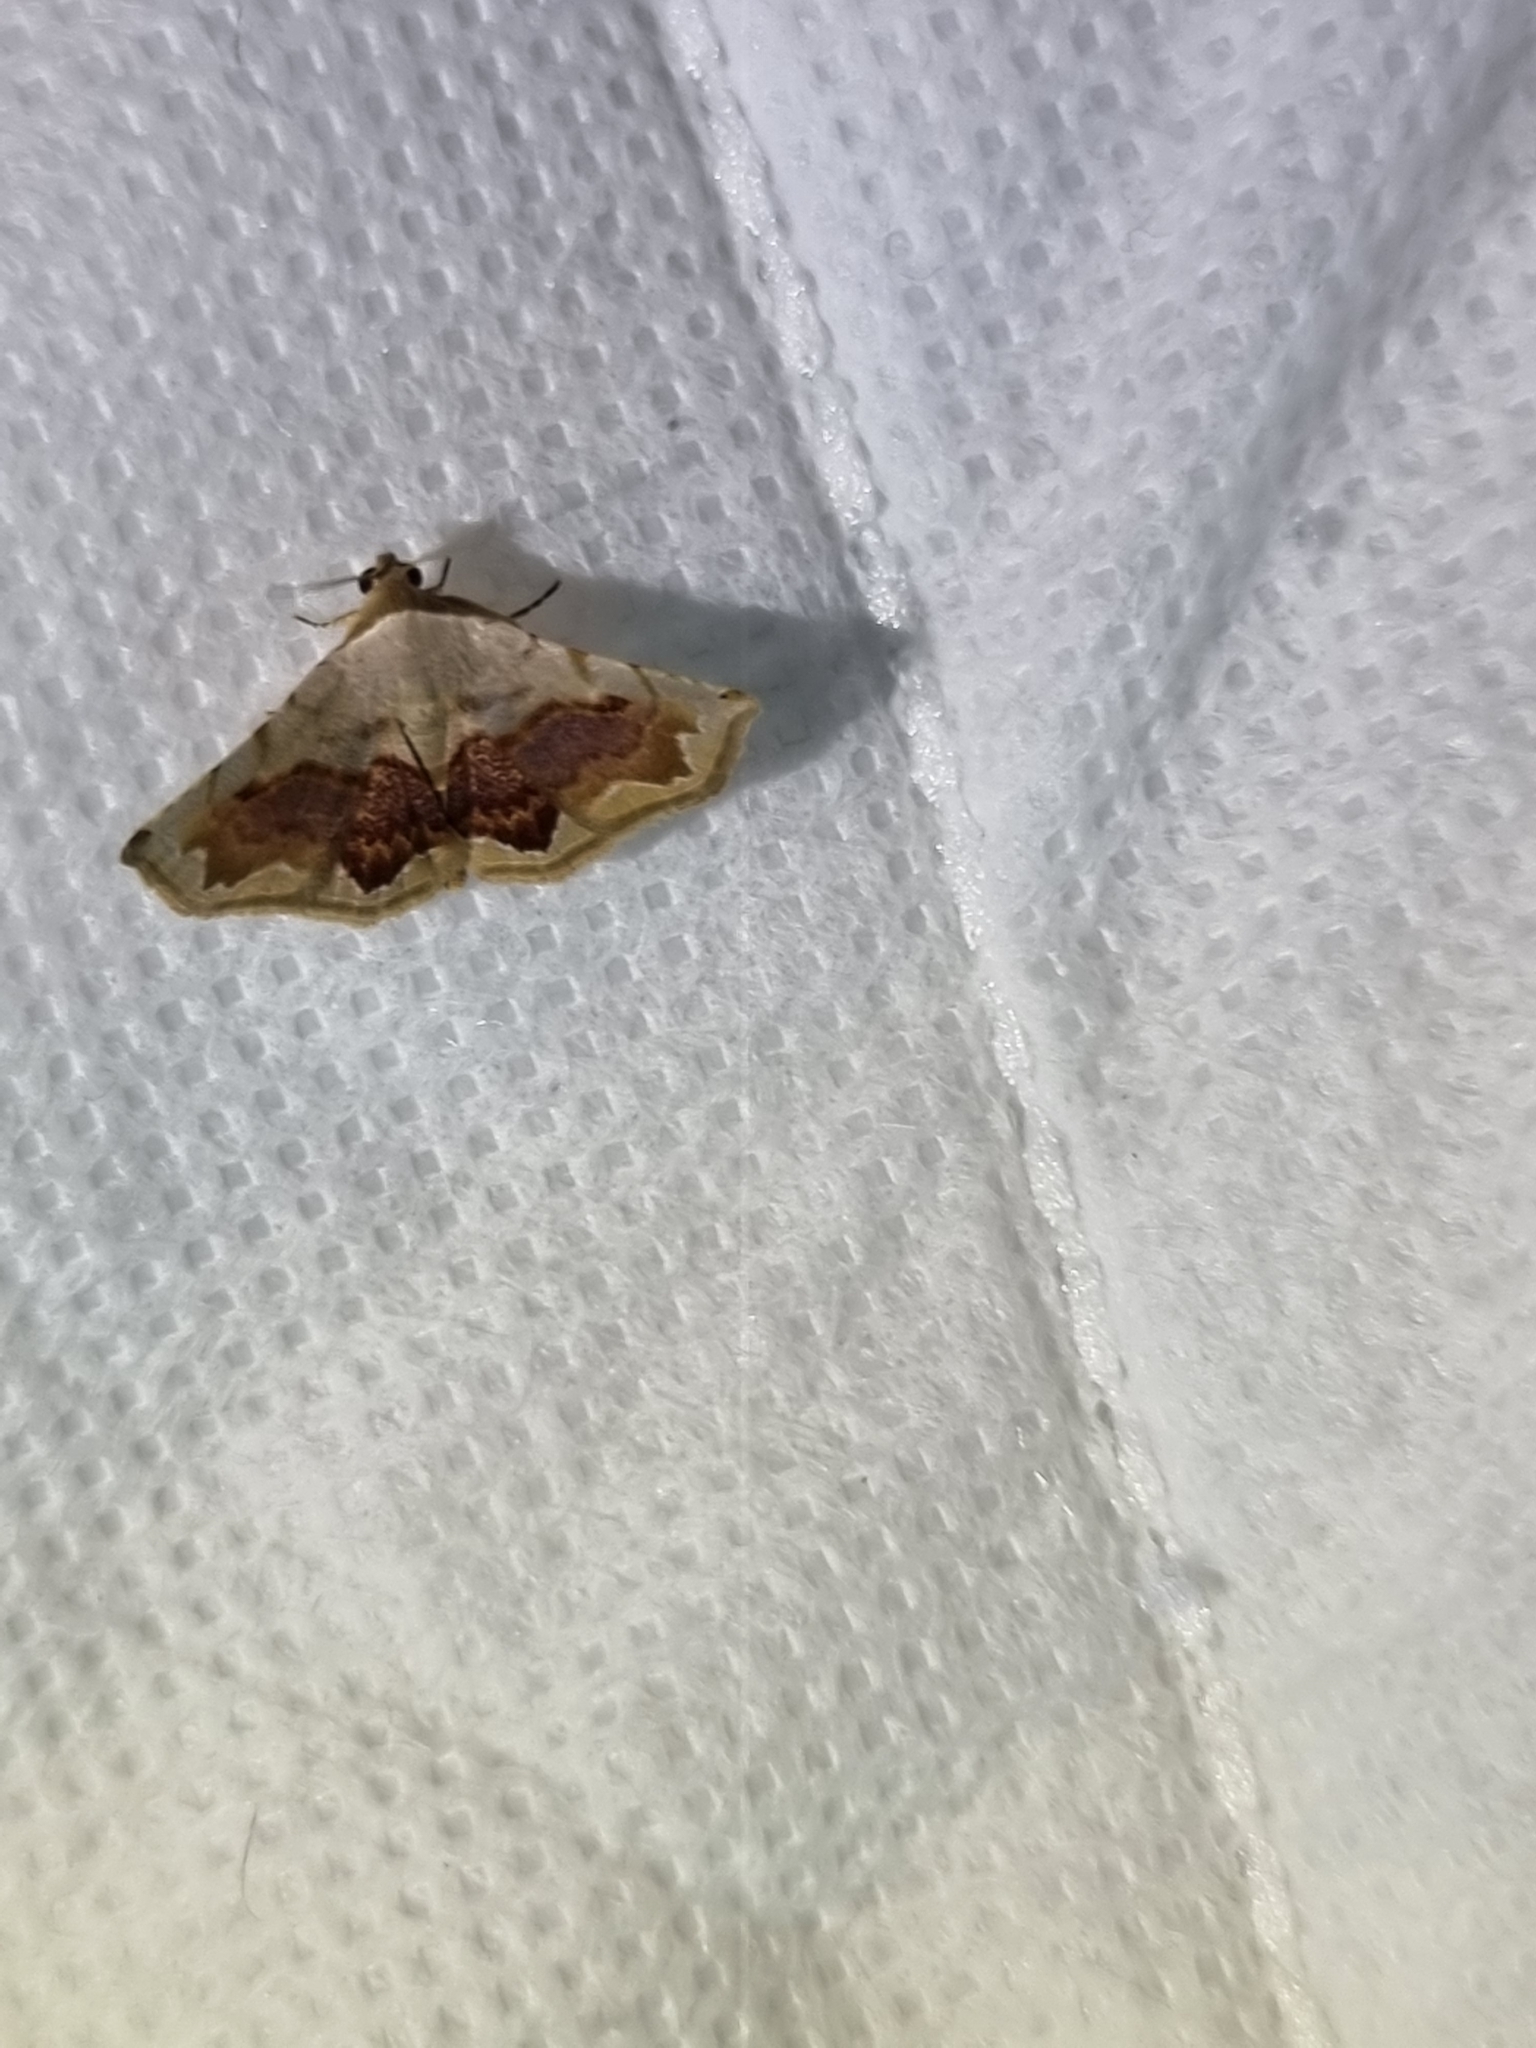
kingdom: Animalia
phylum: Arthropoda
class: Insecta
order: Lepidoptera
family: Noctuidae
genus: Eublemma
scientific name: Eublemma
